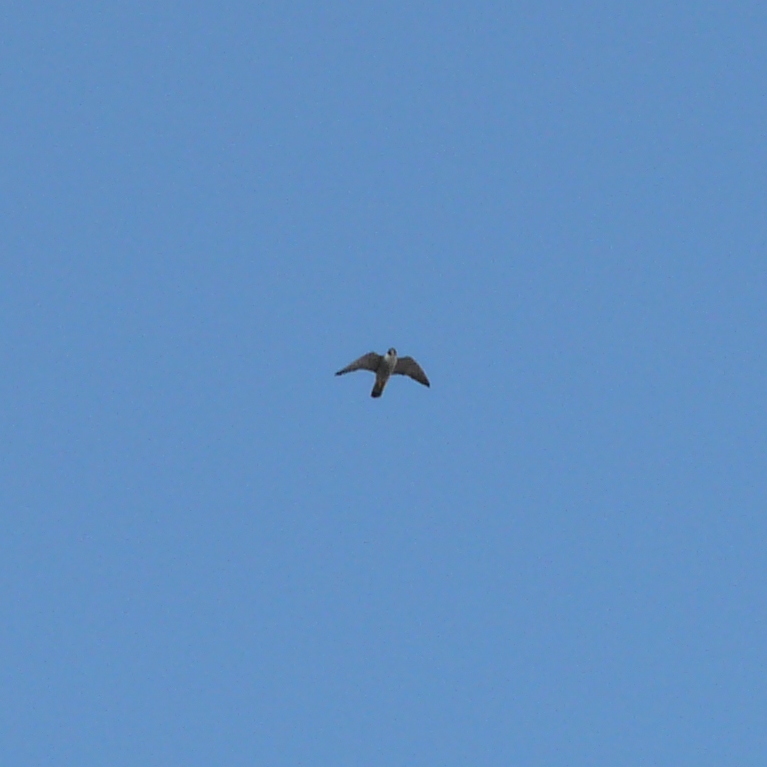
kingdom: Animalia
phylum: Chordata
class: Aves
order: Falconiformes
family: Falconidae
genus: Falco
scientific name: Falco peregrinus
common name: Peregrine falcon
